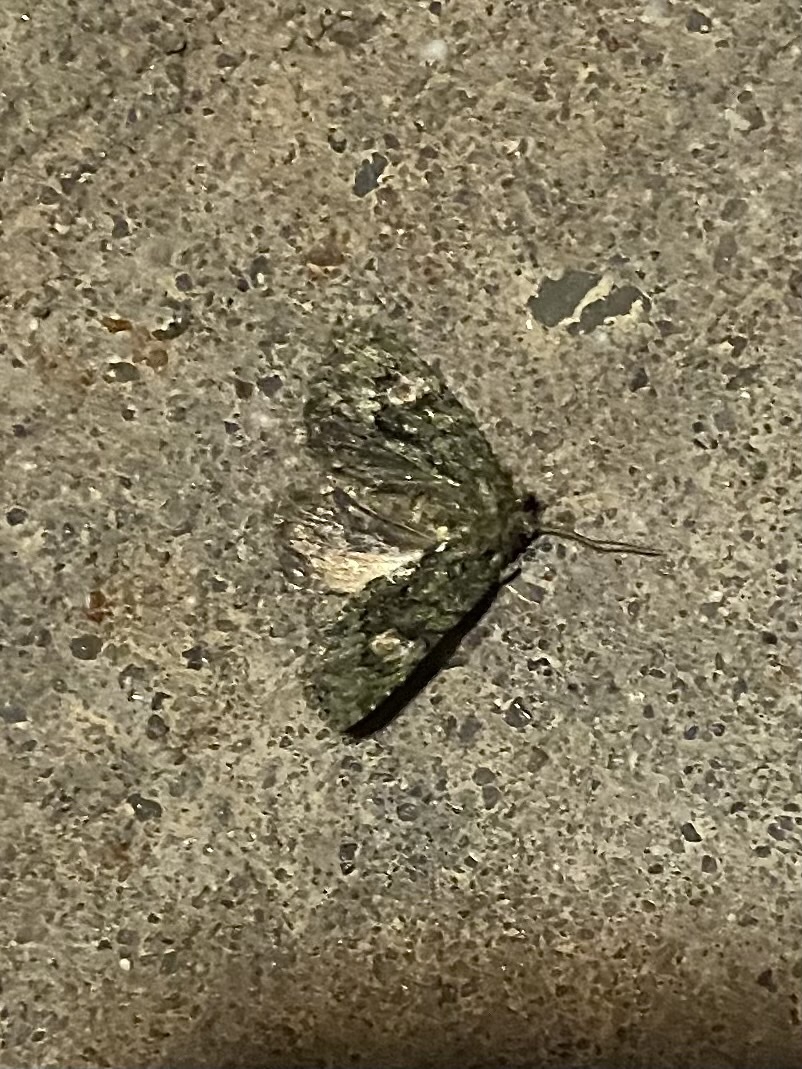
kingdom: Animalia
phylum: Arthropoda
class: Insecta
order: Lepidoptera
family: Noctuidae
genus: Phosphila
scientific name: Phosphila miselioides
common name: Spotted phosphila moth
